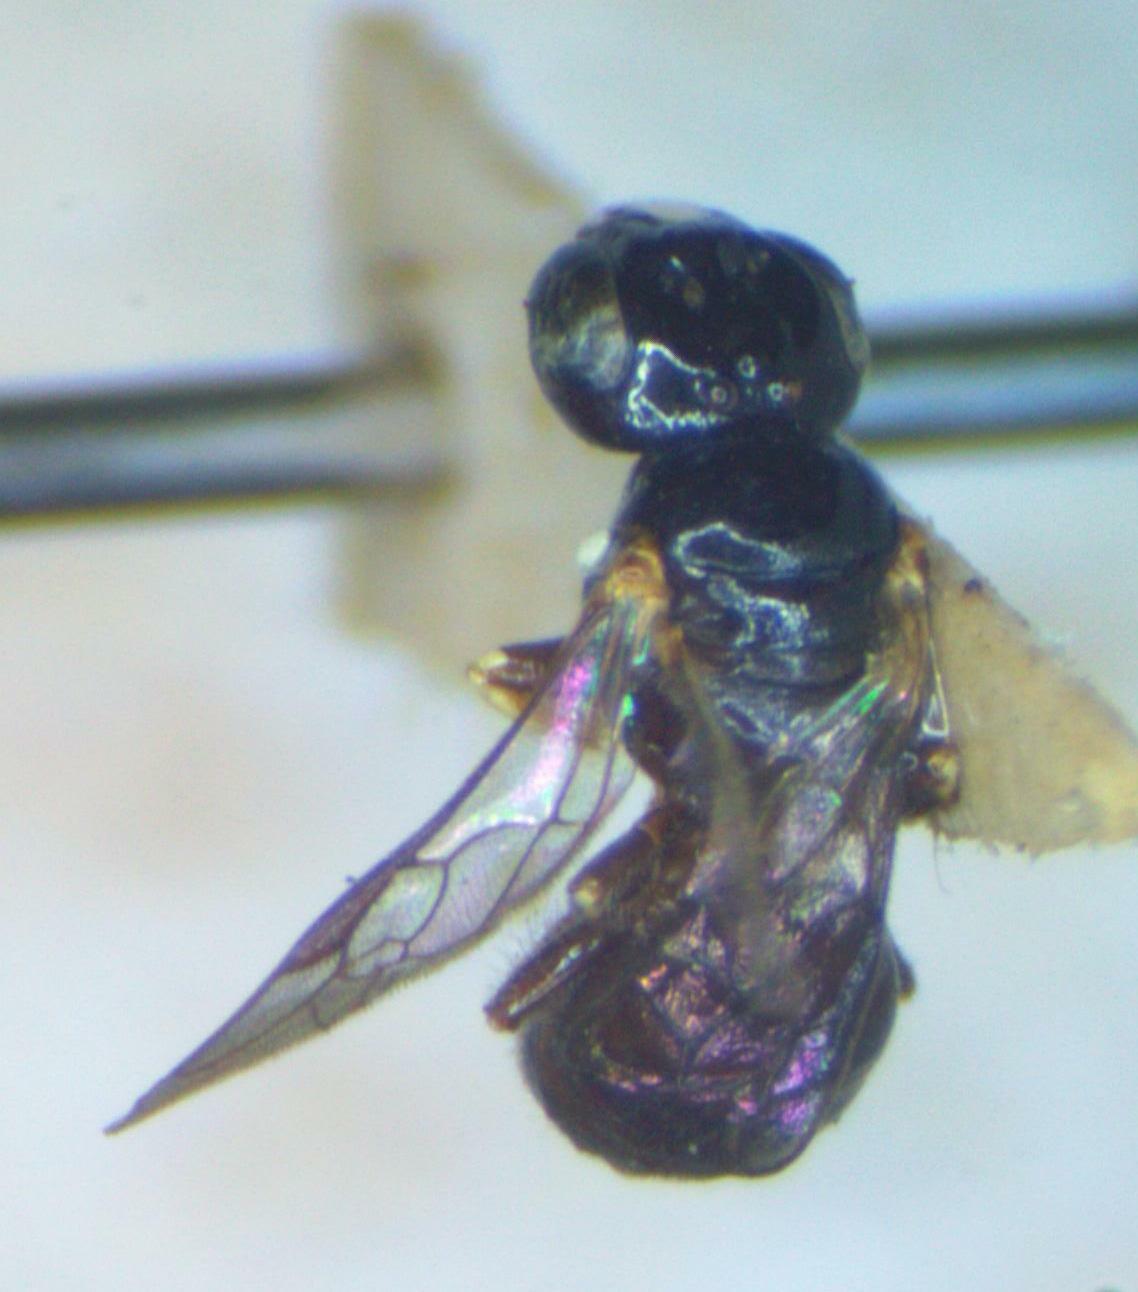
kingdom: Animalia
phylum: Arthropoda
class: Insecta
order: Hymenoptera
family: Apidae
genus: Ceratinula
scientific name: Ceratinula
